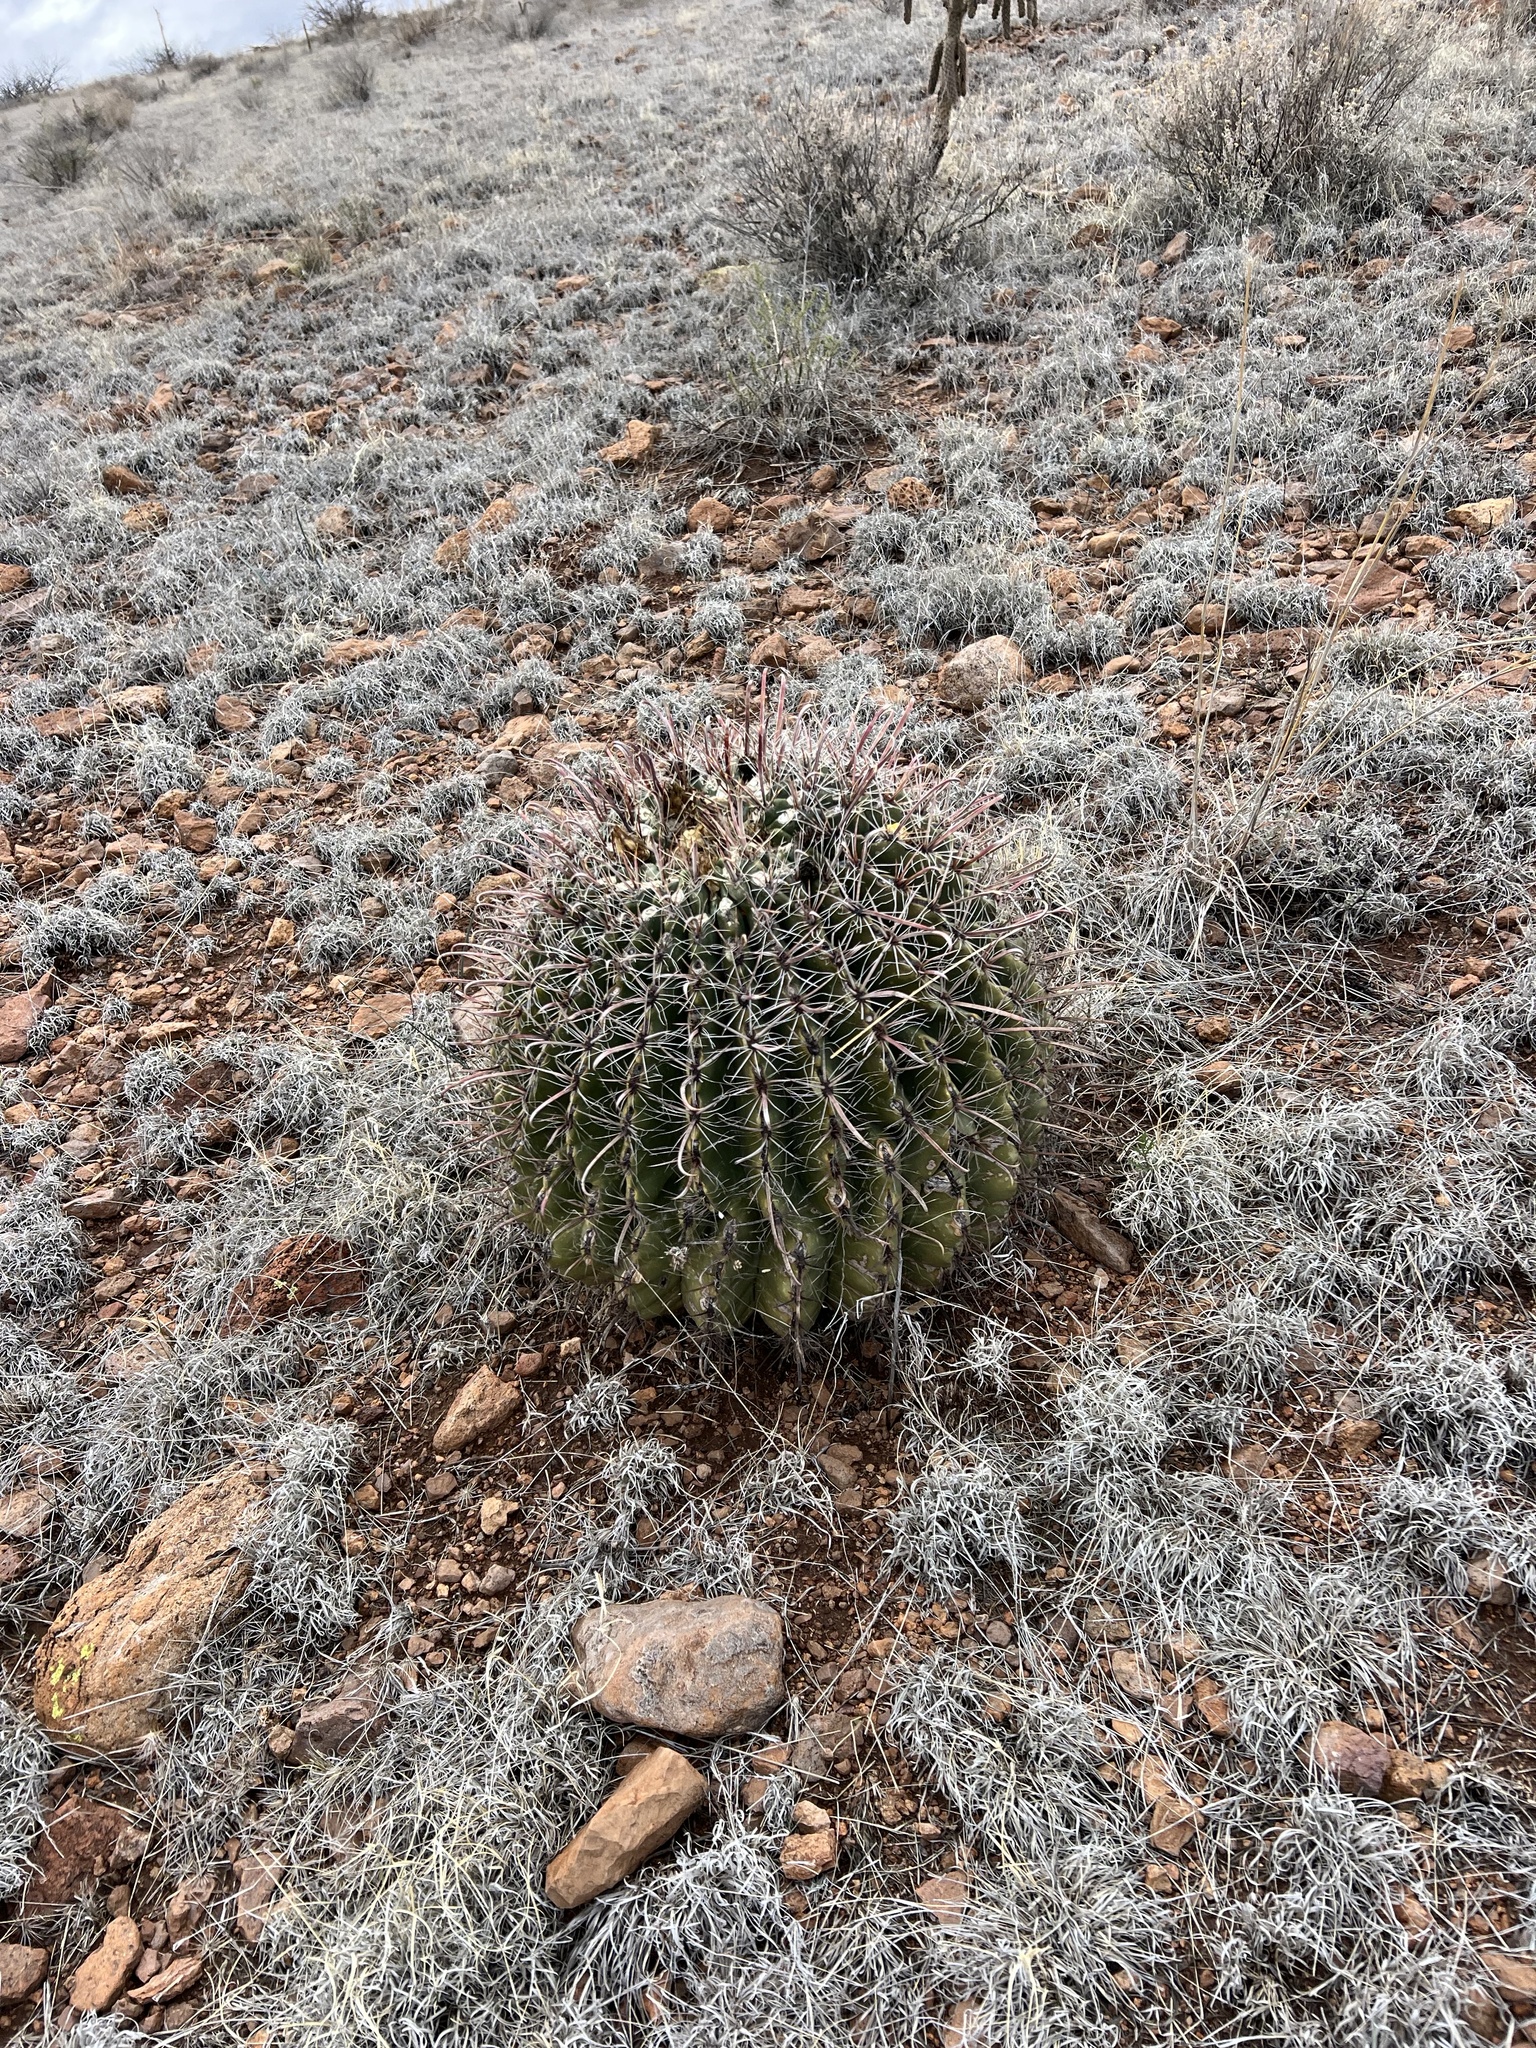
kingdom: Plantae
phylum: Tracheophyta
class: Magnoliopsida
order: Caryophyllales
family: Cactaceae
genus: Ferocactus
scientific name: Ferocactus wislizeni
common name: Candy barrel cactus
